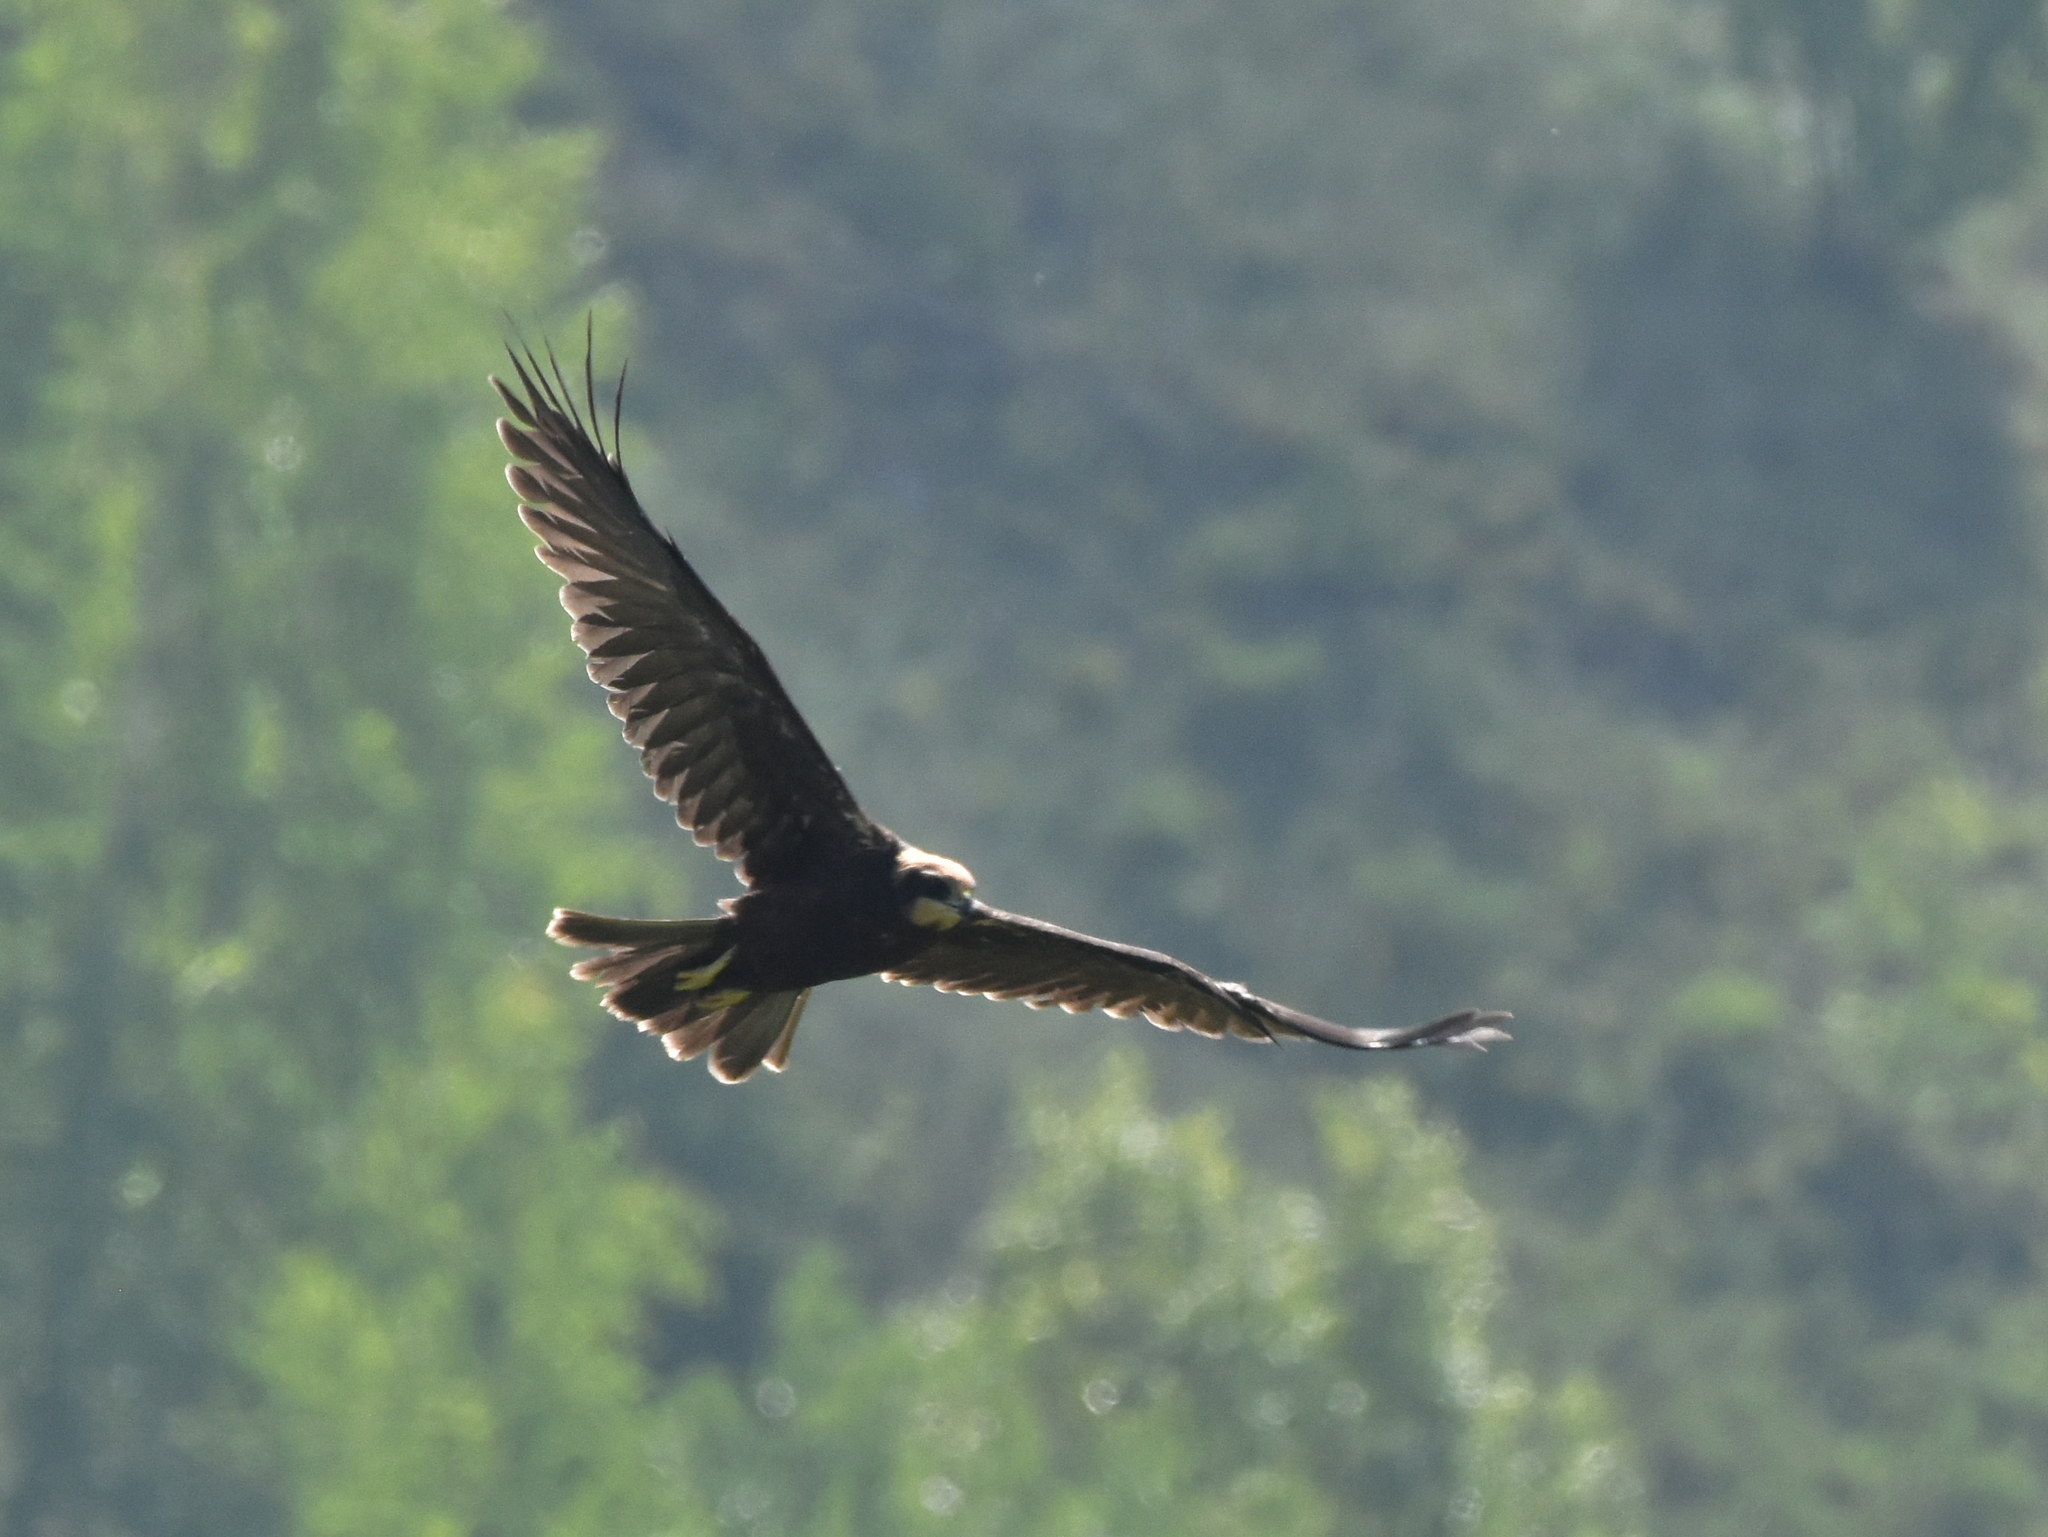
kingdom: Animalia
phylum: Chordata
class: Aves
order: Accipitriformes
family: Accipitridae
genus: Circus
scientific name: Circus aeruginosus
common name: Western marsh harrier
